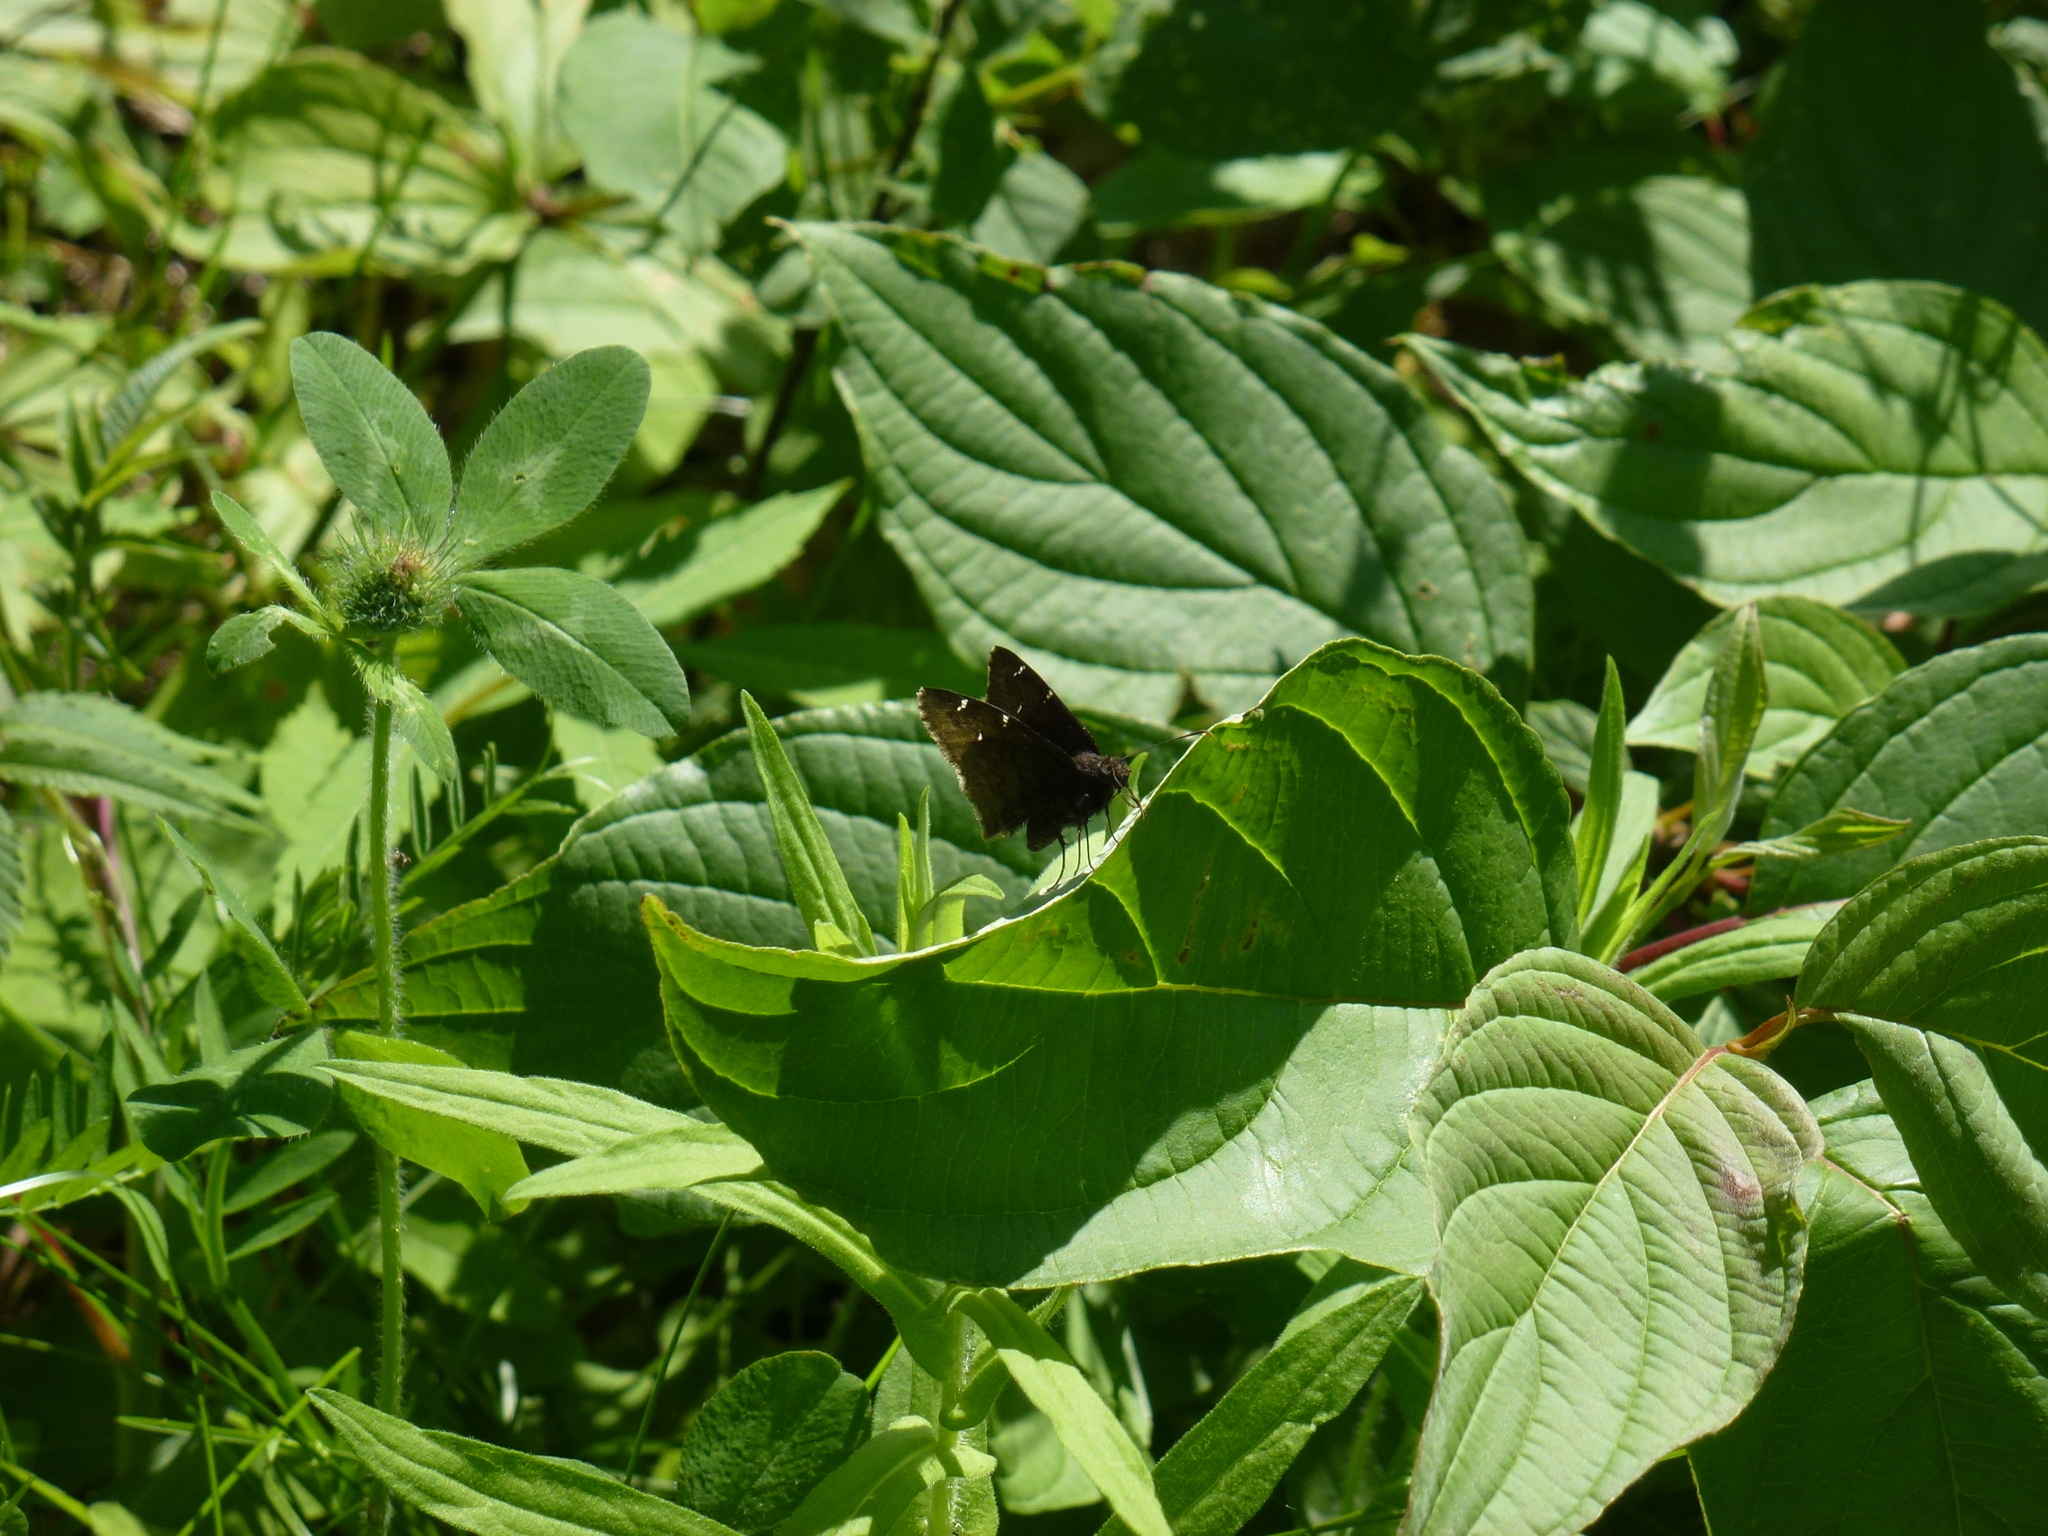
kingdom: Animalia
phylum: Arthropoda
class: Insecta
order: Lepidoptera
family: Hesperiidae
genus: Thorybes
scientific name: Thorybes pylades
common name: Northern cloudywing
